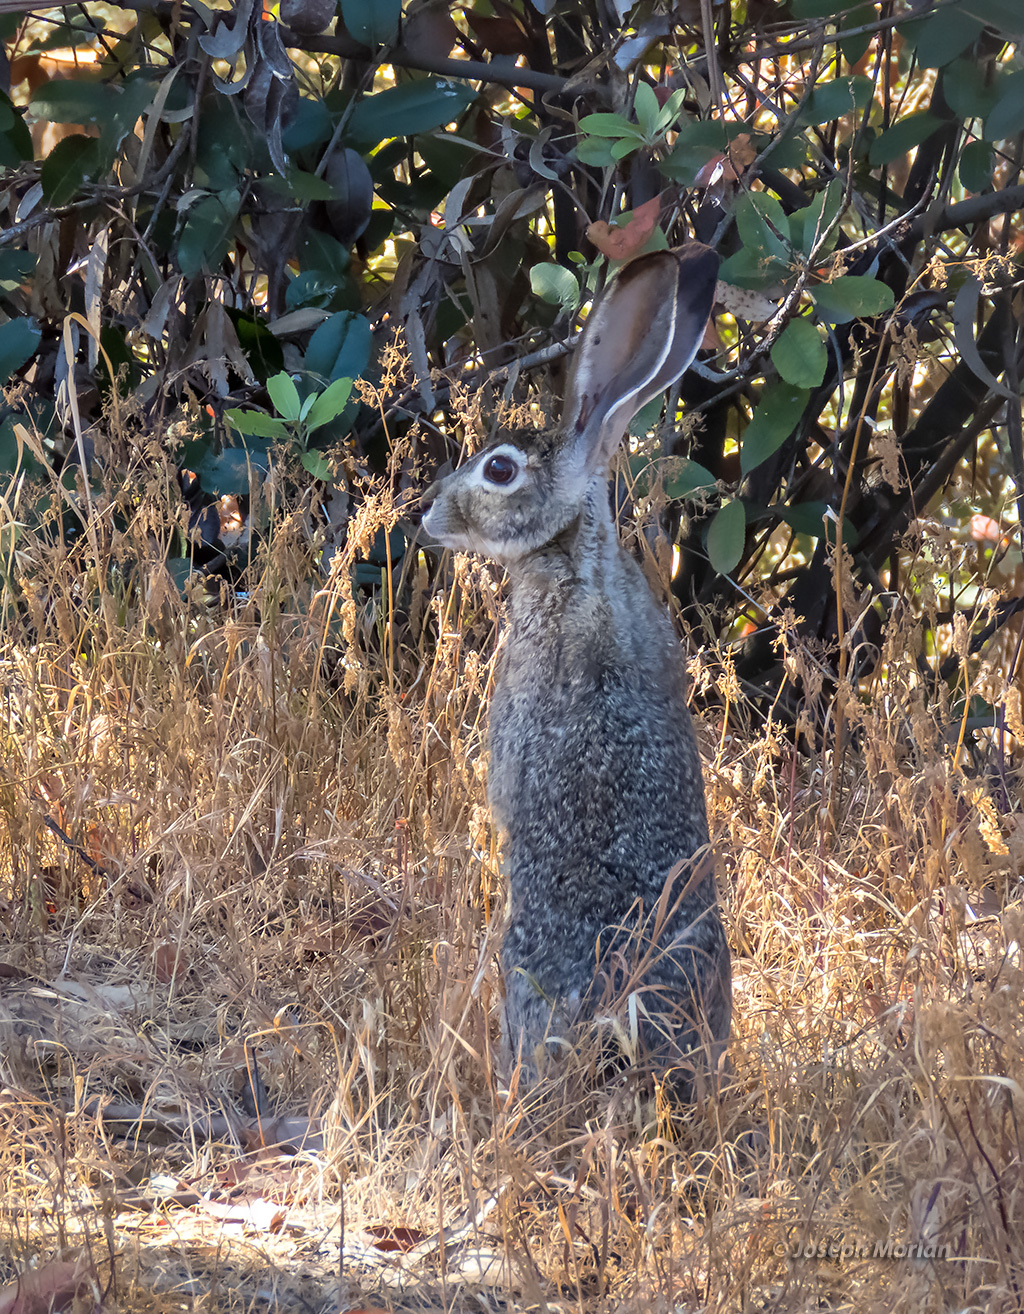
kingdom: Animalia
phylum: Chordata
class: Mammalia
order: Lagomorpha
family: Leporidae
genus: Lepus
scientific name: Lepus californicus
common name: Black-tailed jackrabbit
